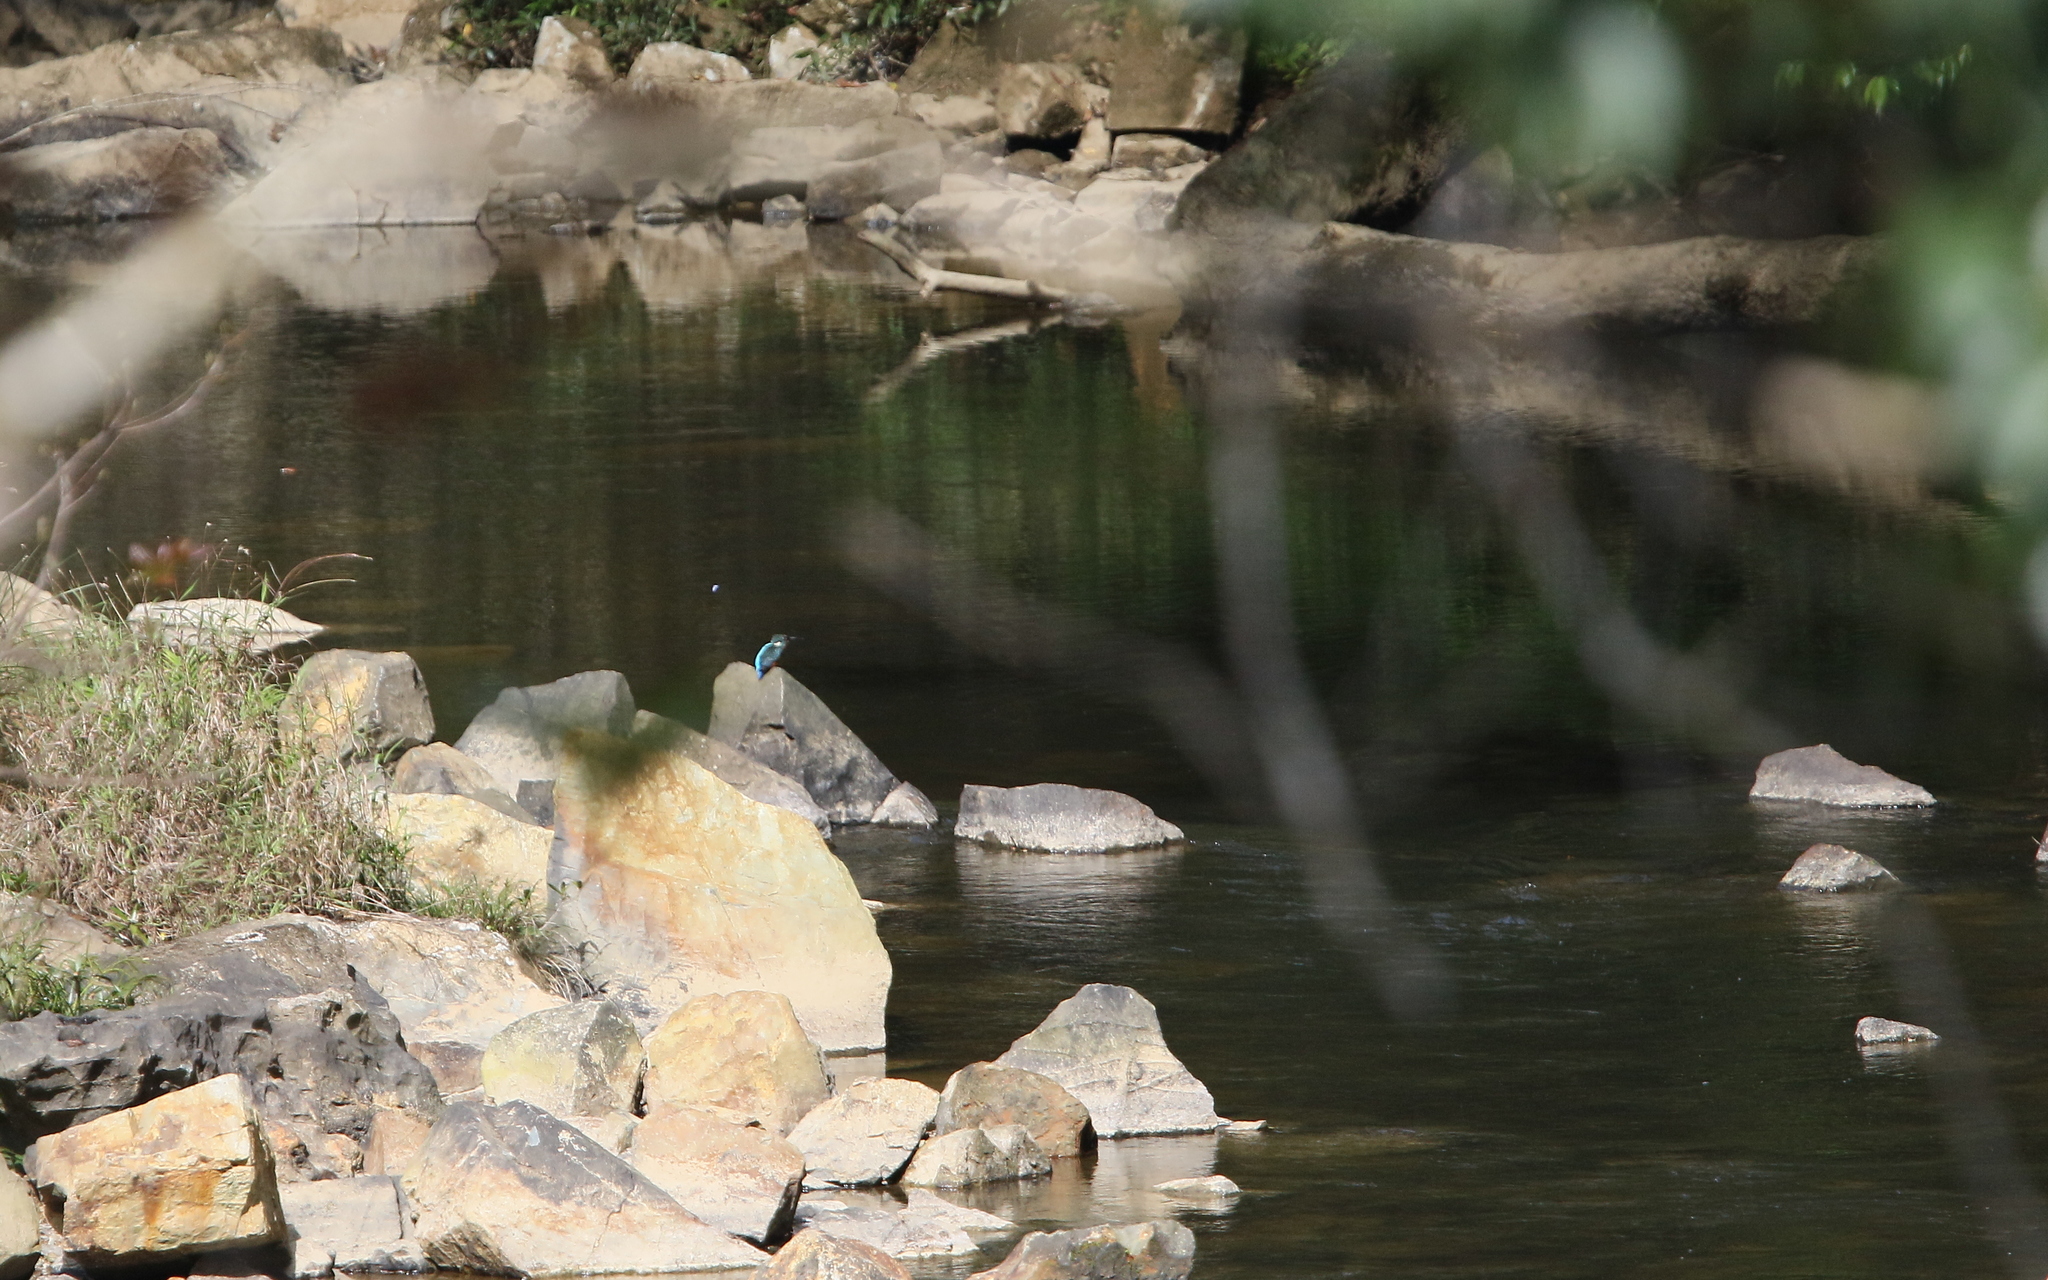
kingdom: Animalia
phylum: Chordata
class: Aves
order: Coraciiformes
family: Alcedinidae
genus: Alcedo
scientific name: Alcedo hercules
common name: Blyth's kingfisher
